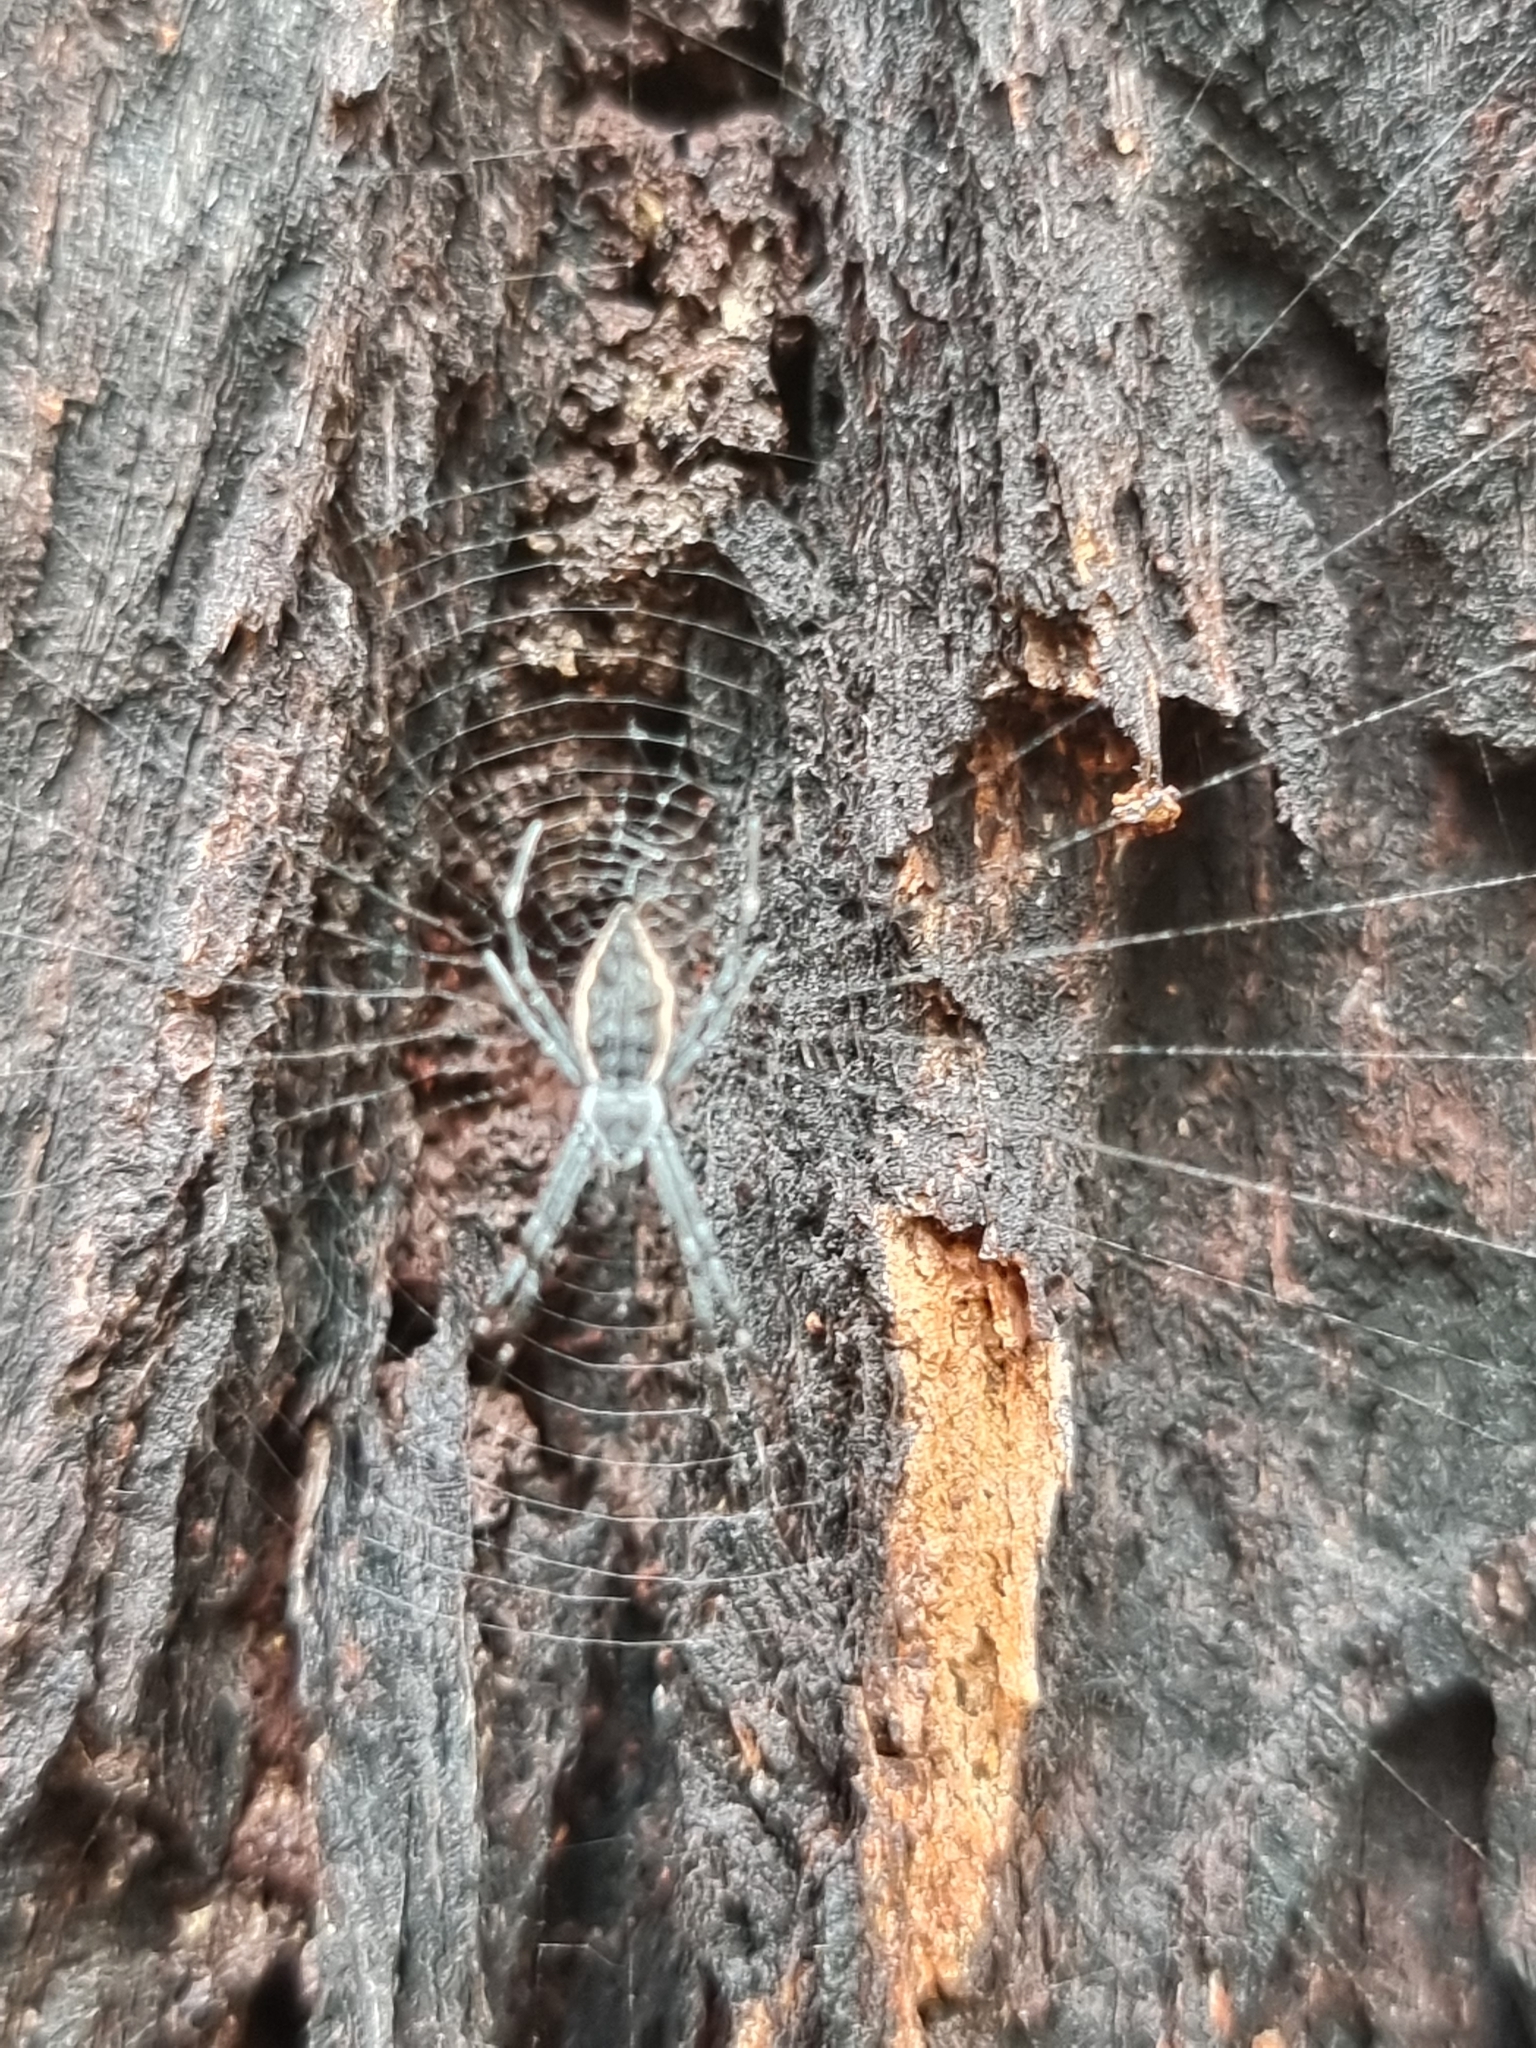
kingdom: Animalia
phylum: Arthropoda
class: Arachnida
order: Araneae
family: Araneidae
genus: Argiope
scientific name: Argiope ocyaloides
